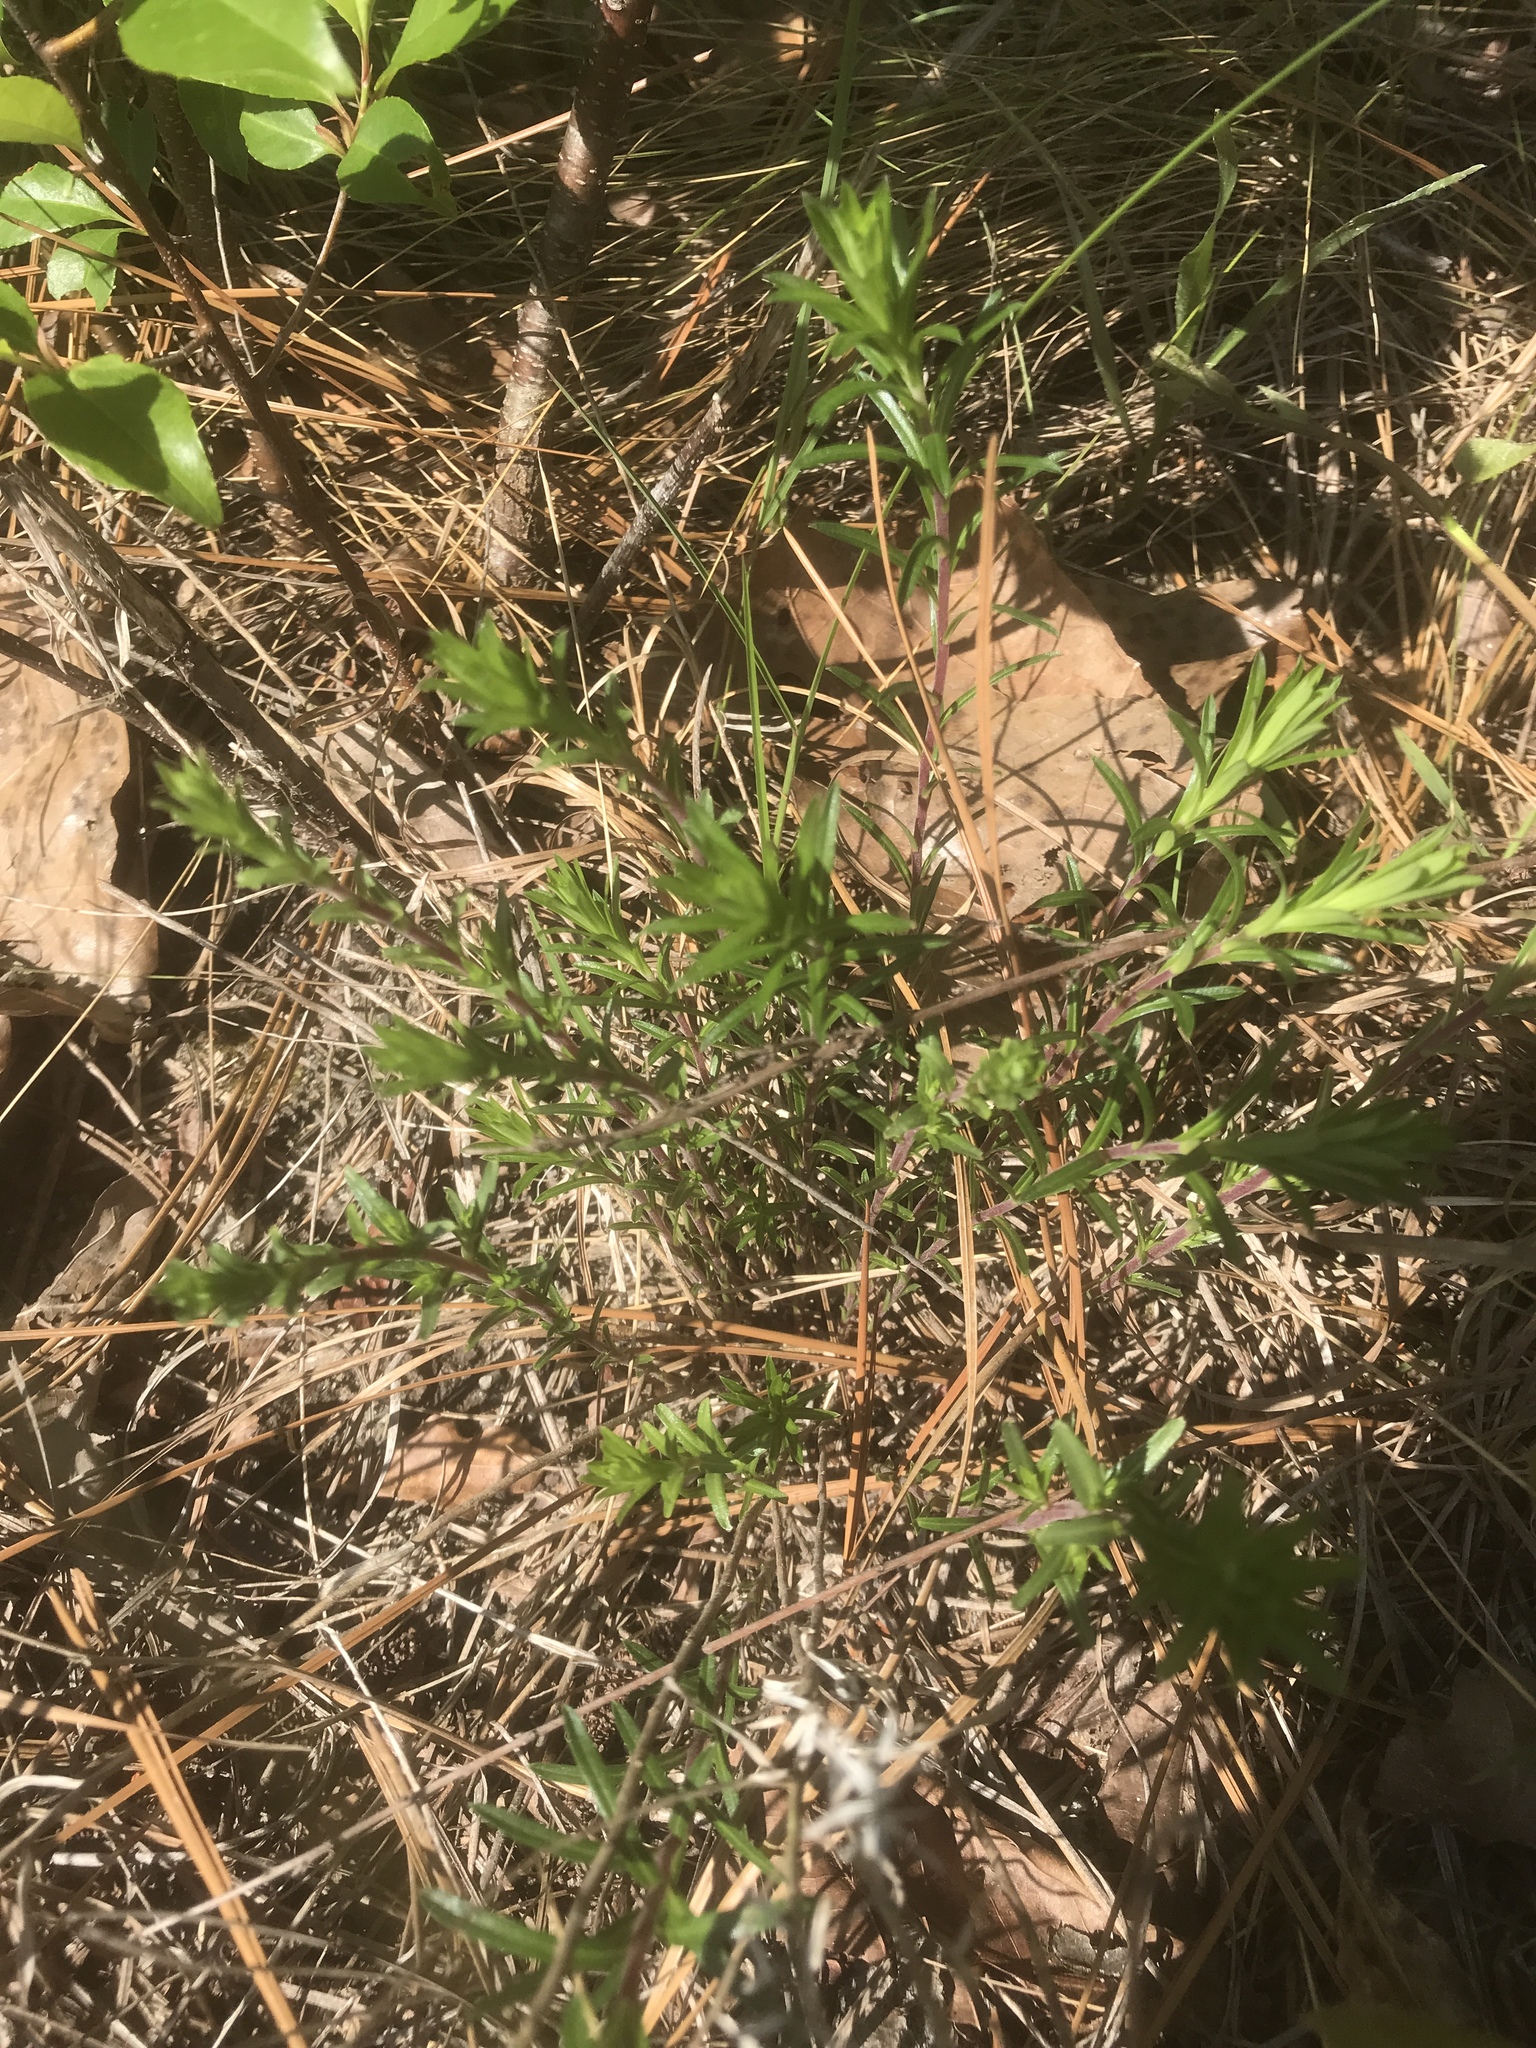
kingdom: Plantae
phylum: Tracheophyta
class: Magnoliopsida
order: Asterales
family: Asteraceae
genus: Ionactis
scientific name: Ionactis linariifolia
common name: Flax-leaf aster
